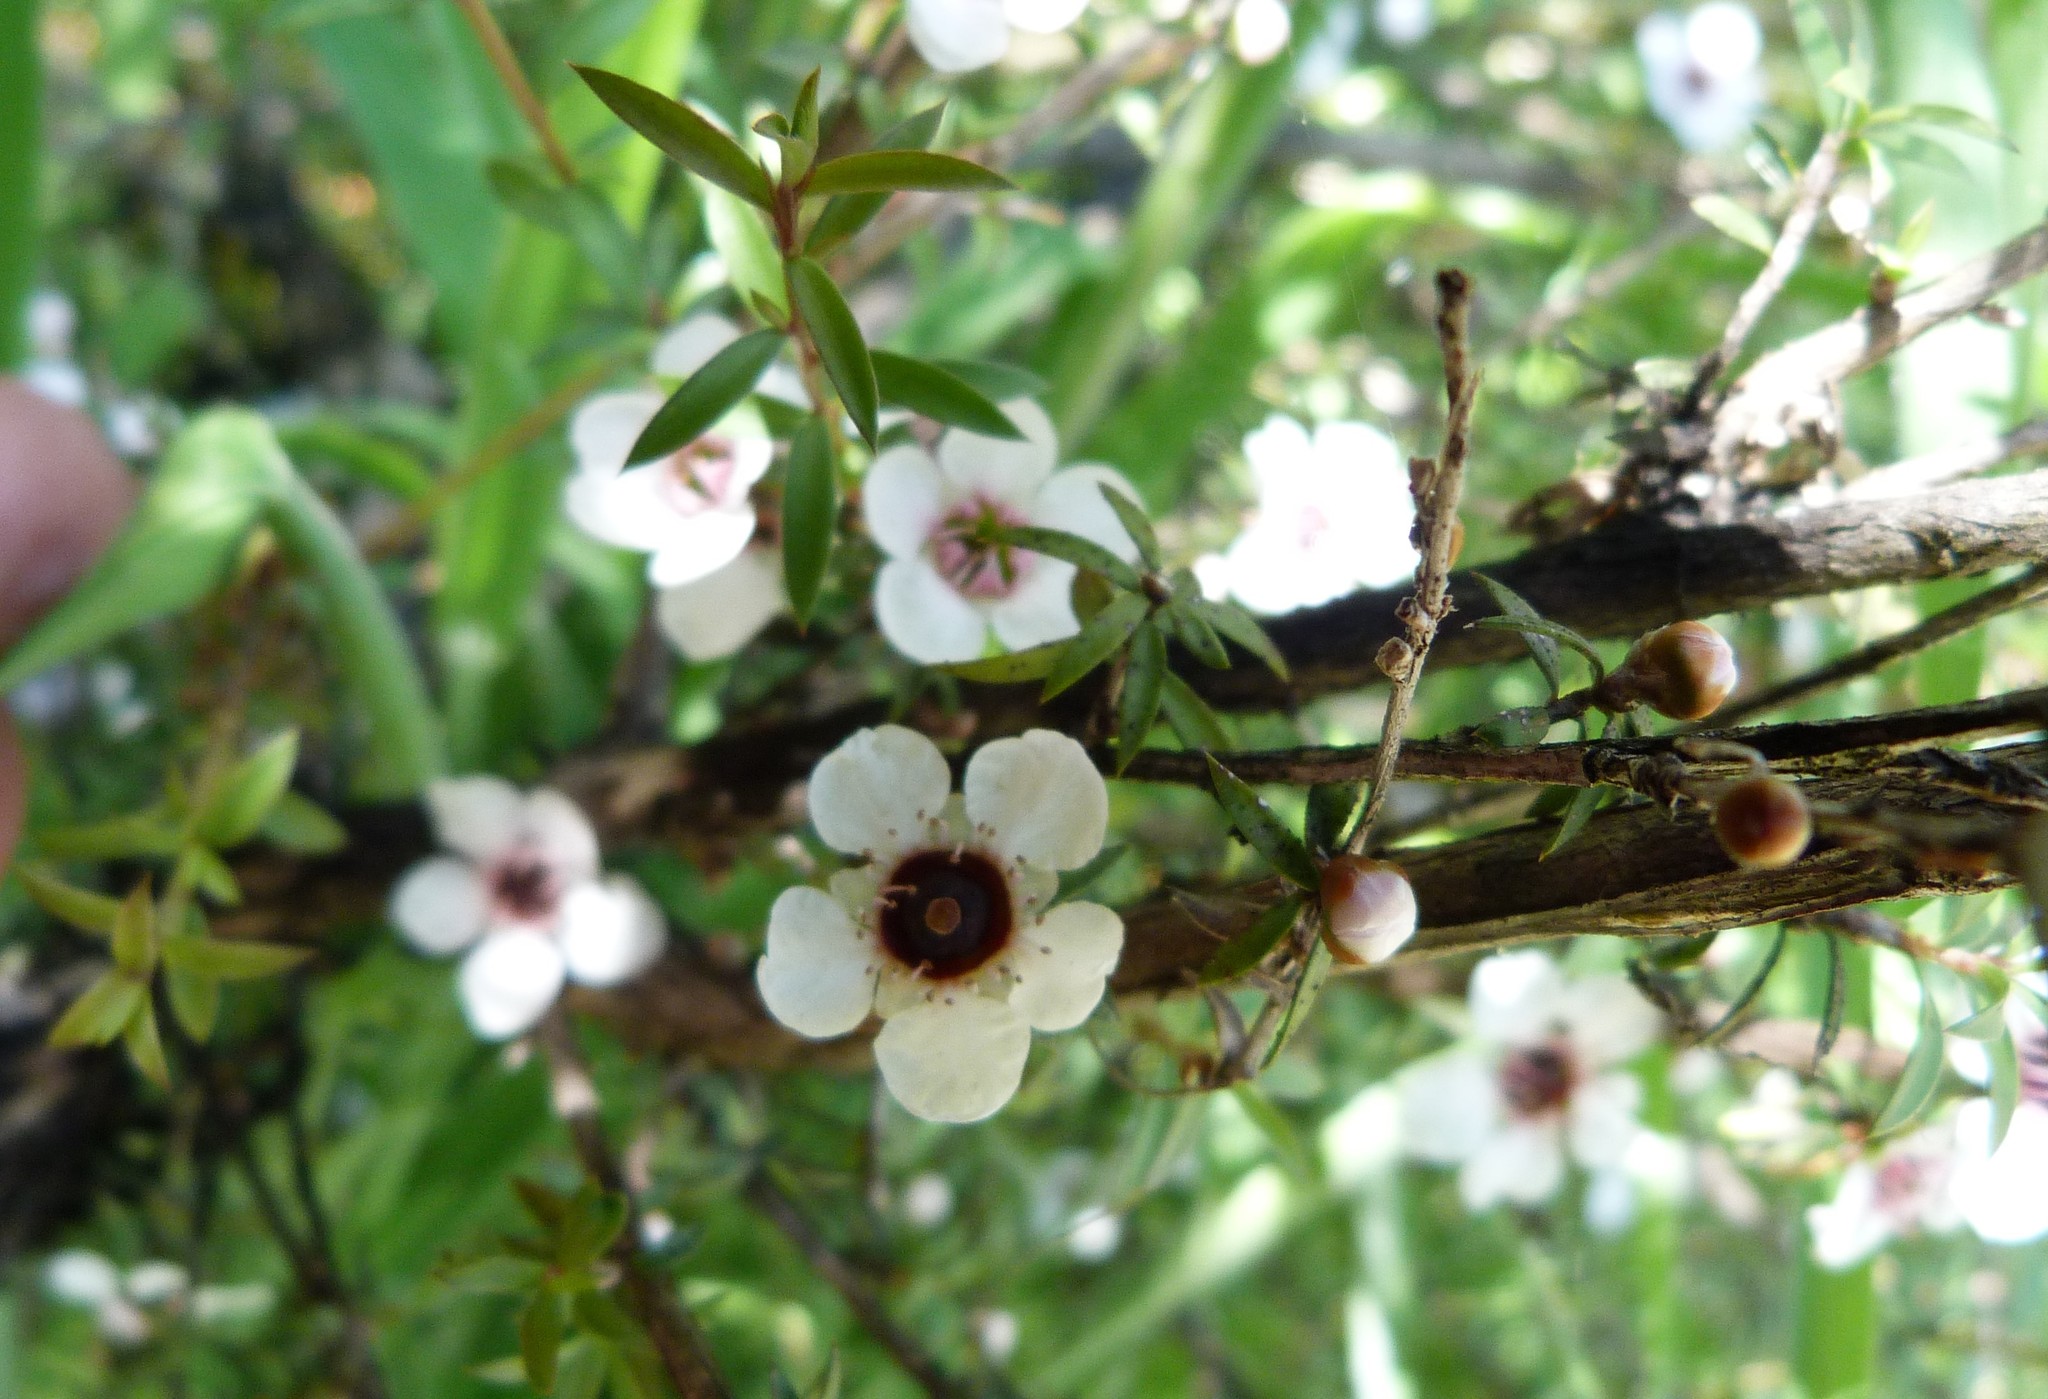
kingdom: Plantae
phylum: Tracheophyta
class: Magnoliopsida
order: Myrtales
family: Myrtaceae
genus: Leptospermum
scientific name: Leptospermum scoparium
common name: Broom tea-tree
